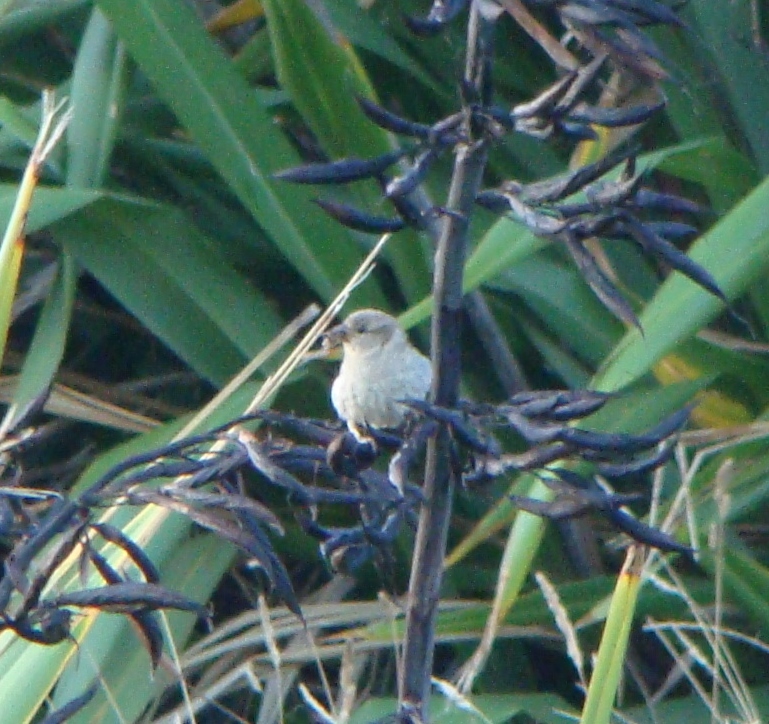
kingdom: Animalia
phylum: Chordata
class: Aves
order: Passeriformes
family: Passeridae
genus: Passer
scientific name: Passer domesticus
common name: House sparrow
